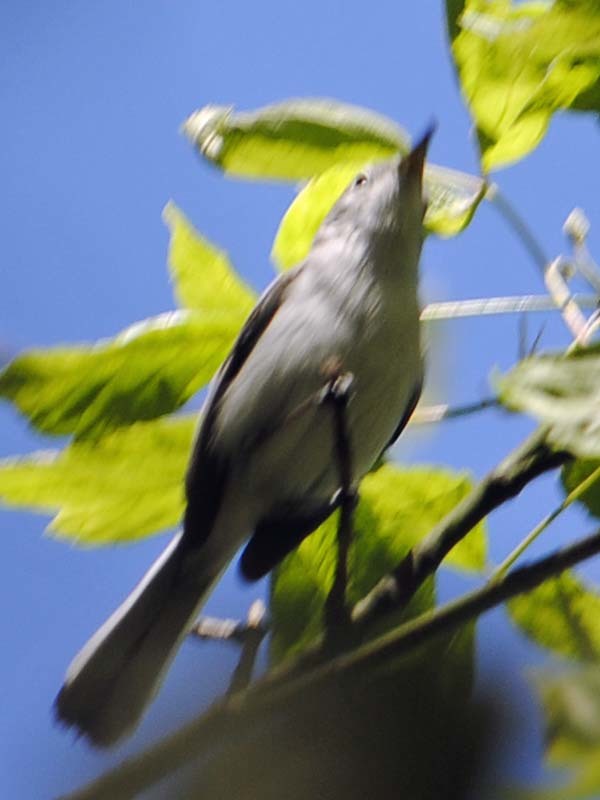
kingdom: Animalia
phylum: Chordata
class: Aves
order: Passeriformes
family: Polioptilidae
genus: Polioptila
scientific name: Polioptila caerulea
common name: Blue-gray gnatcatcher
